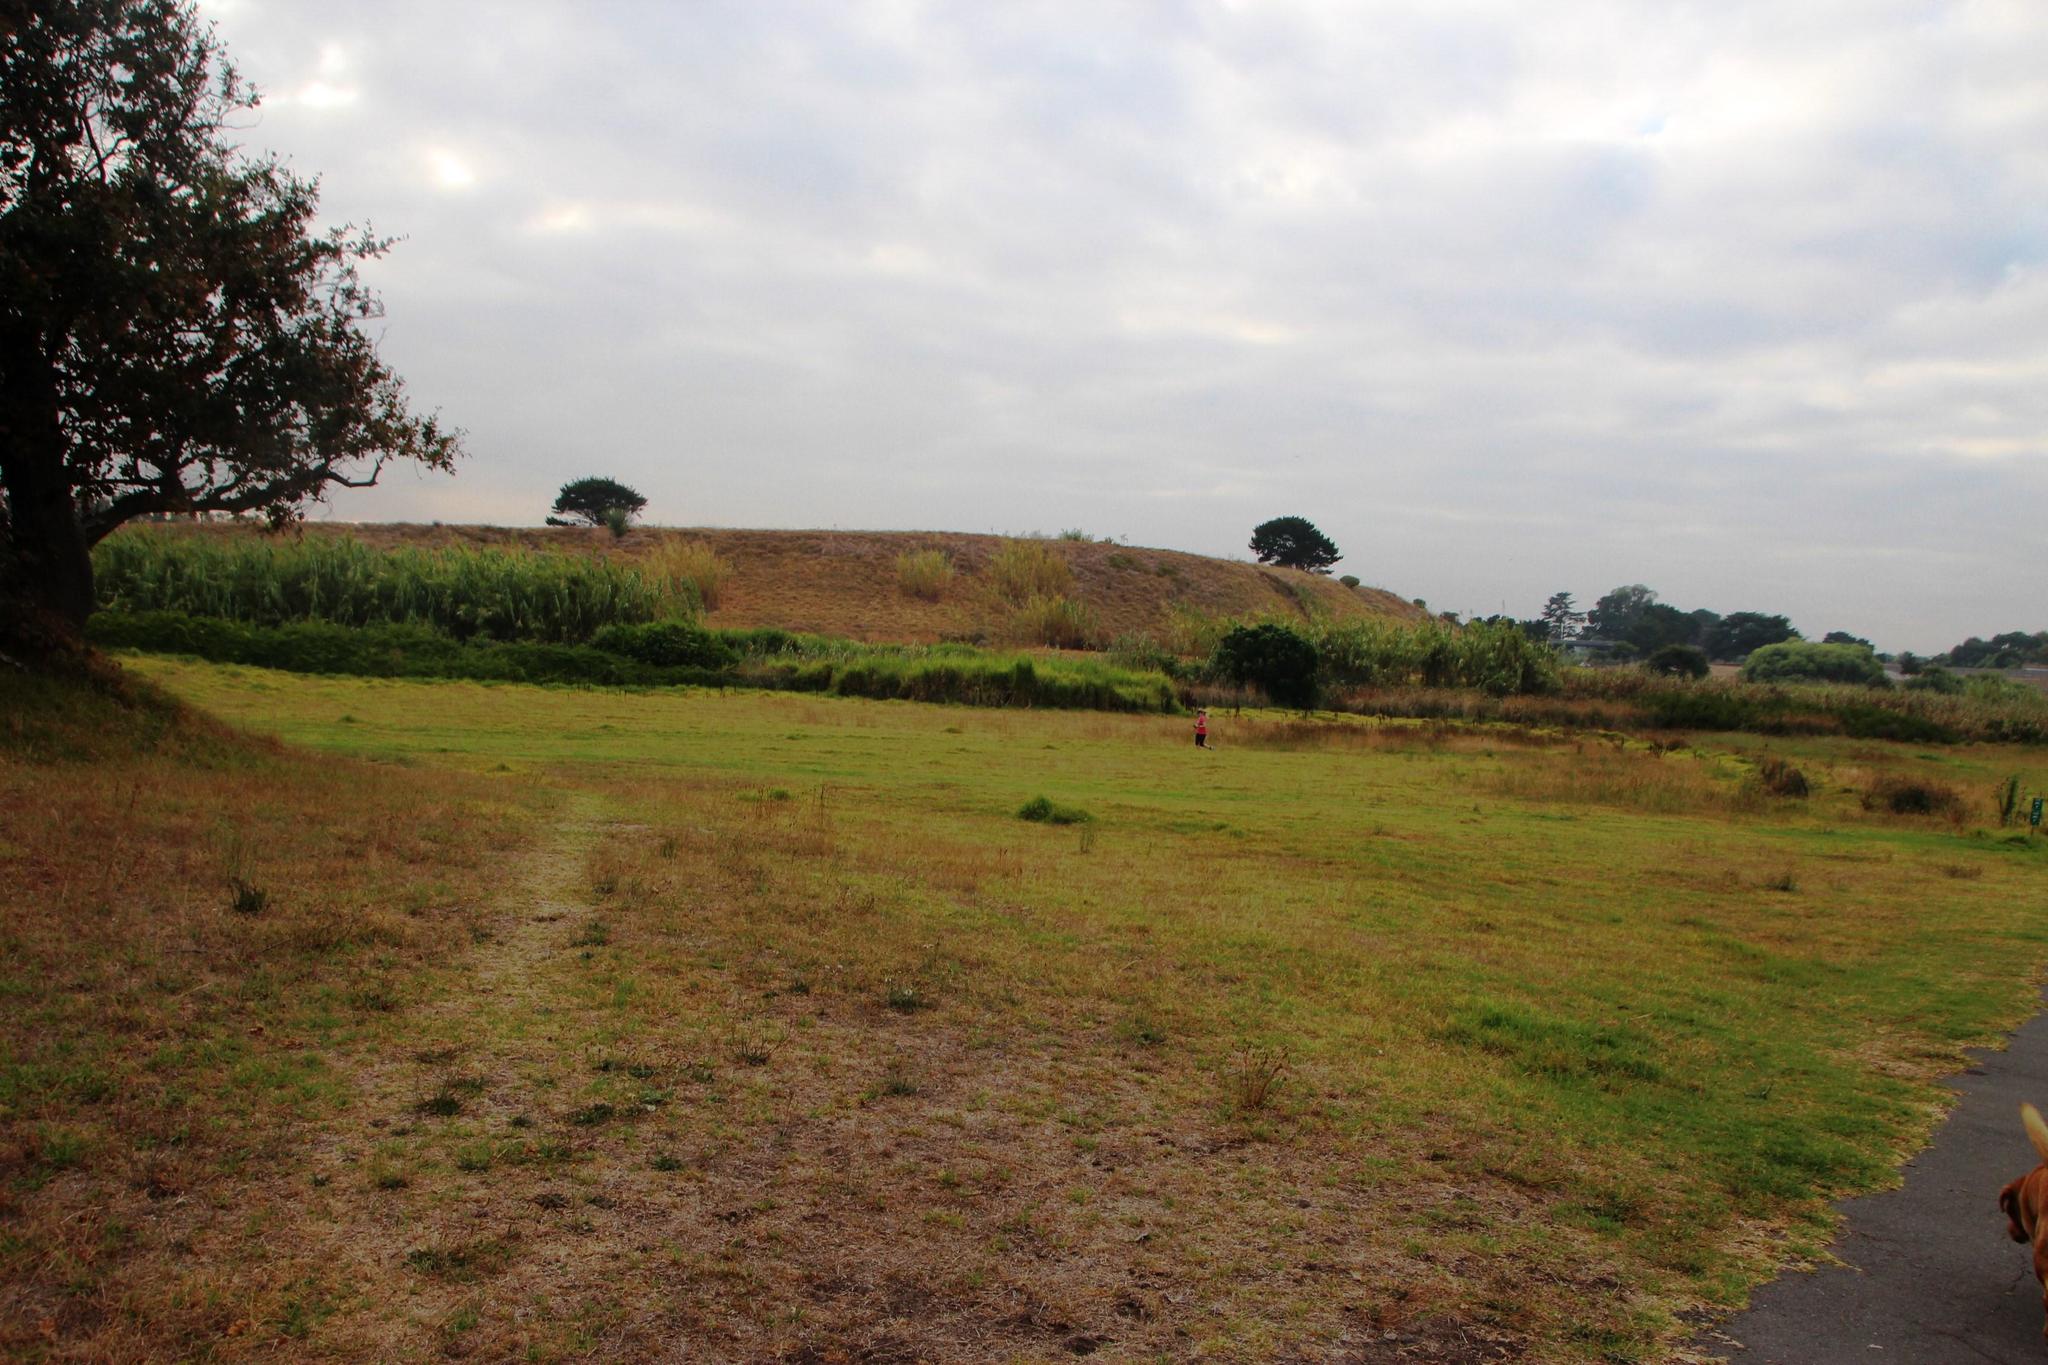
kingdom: Plantae
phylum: Tracheophyta
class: Liliopsida
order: Poales
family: Poaceae
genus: Arundo
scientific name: Arundo donax
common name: Giant reed
